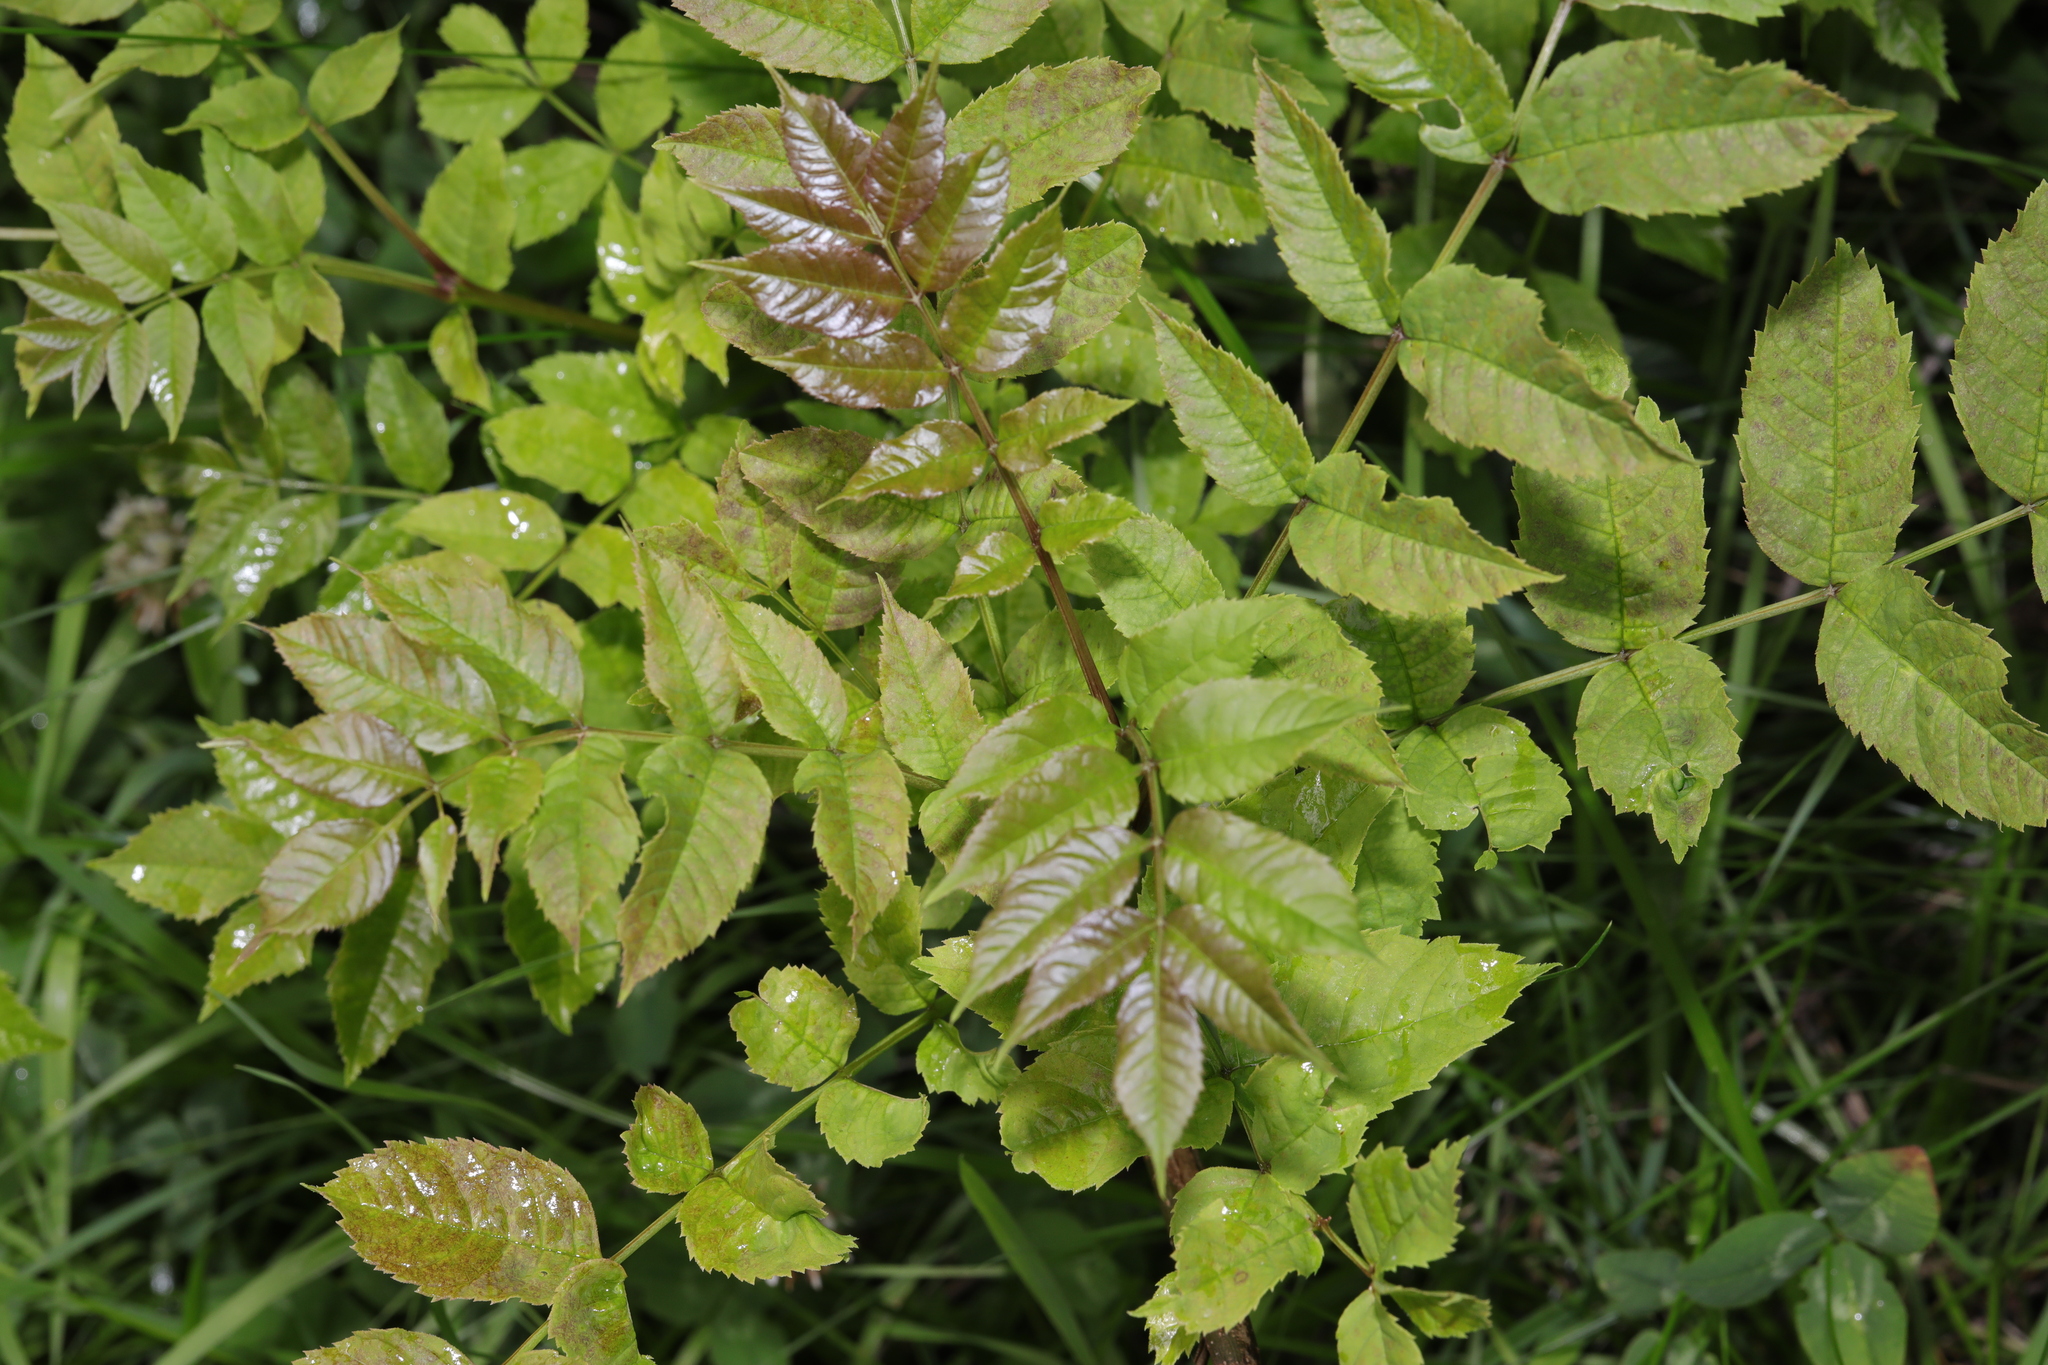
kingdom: Plantae
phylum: Tracheophyta
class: Magnoliopsida
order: Lamiales
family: Oleaceae
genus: Fraxinus
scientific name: Fraxinus excelsior
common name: European ash
